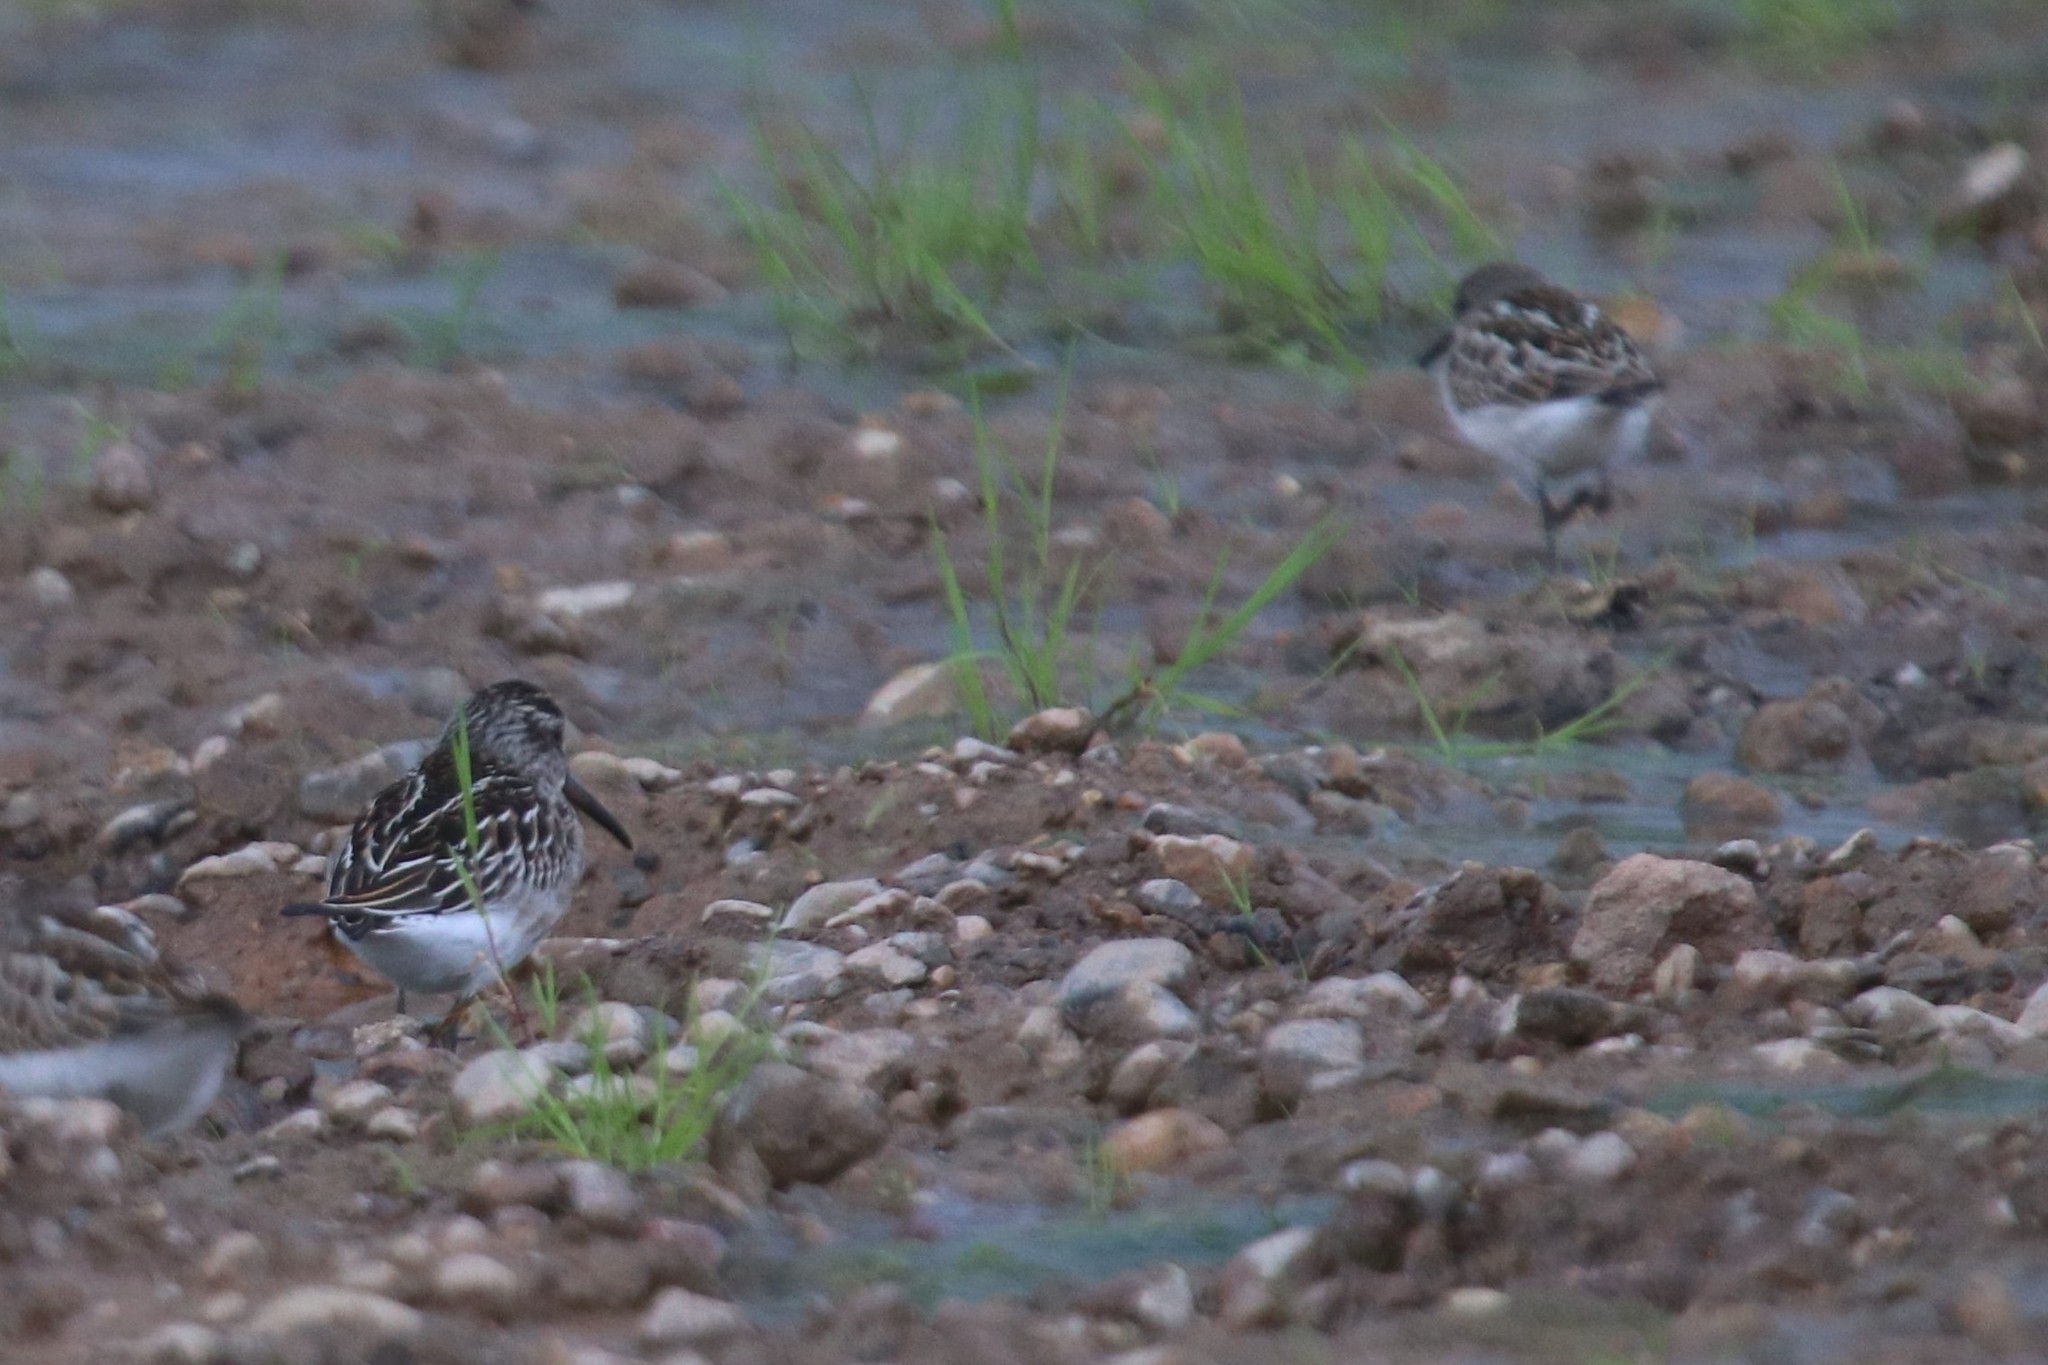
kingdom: Animalia
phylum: Chordata
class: Aves
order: Charadriiformes
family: Scolopacidae
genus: Calidris
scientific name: Calidris falcinellus
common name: Broad-billed sandpiper
